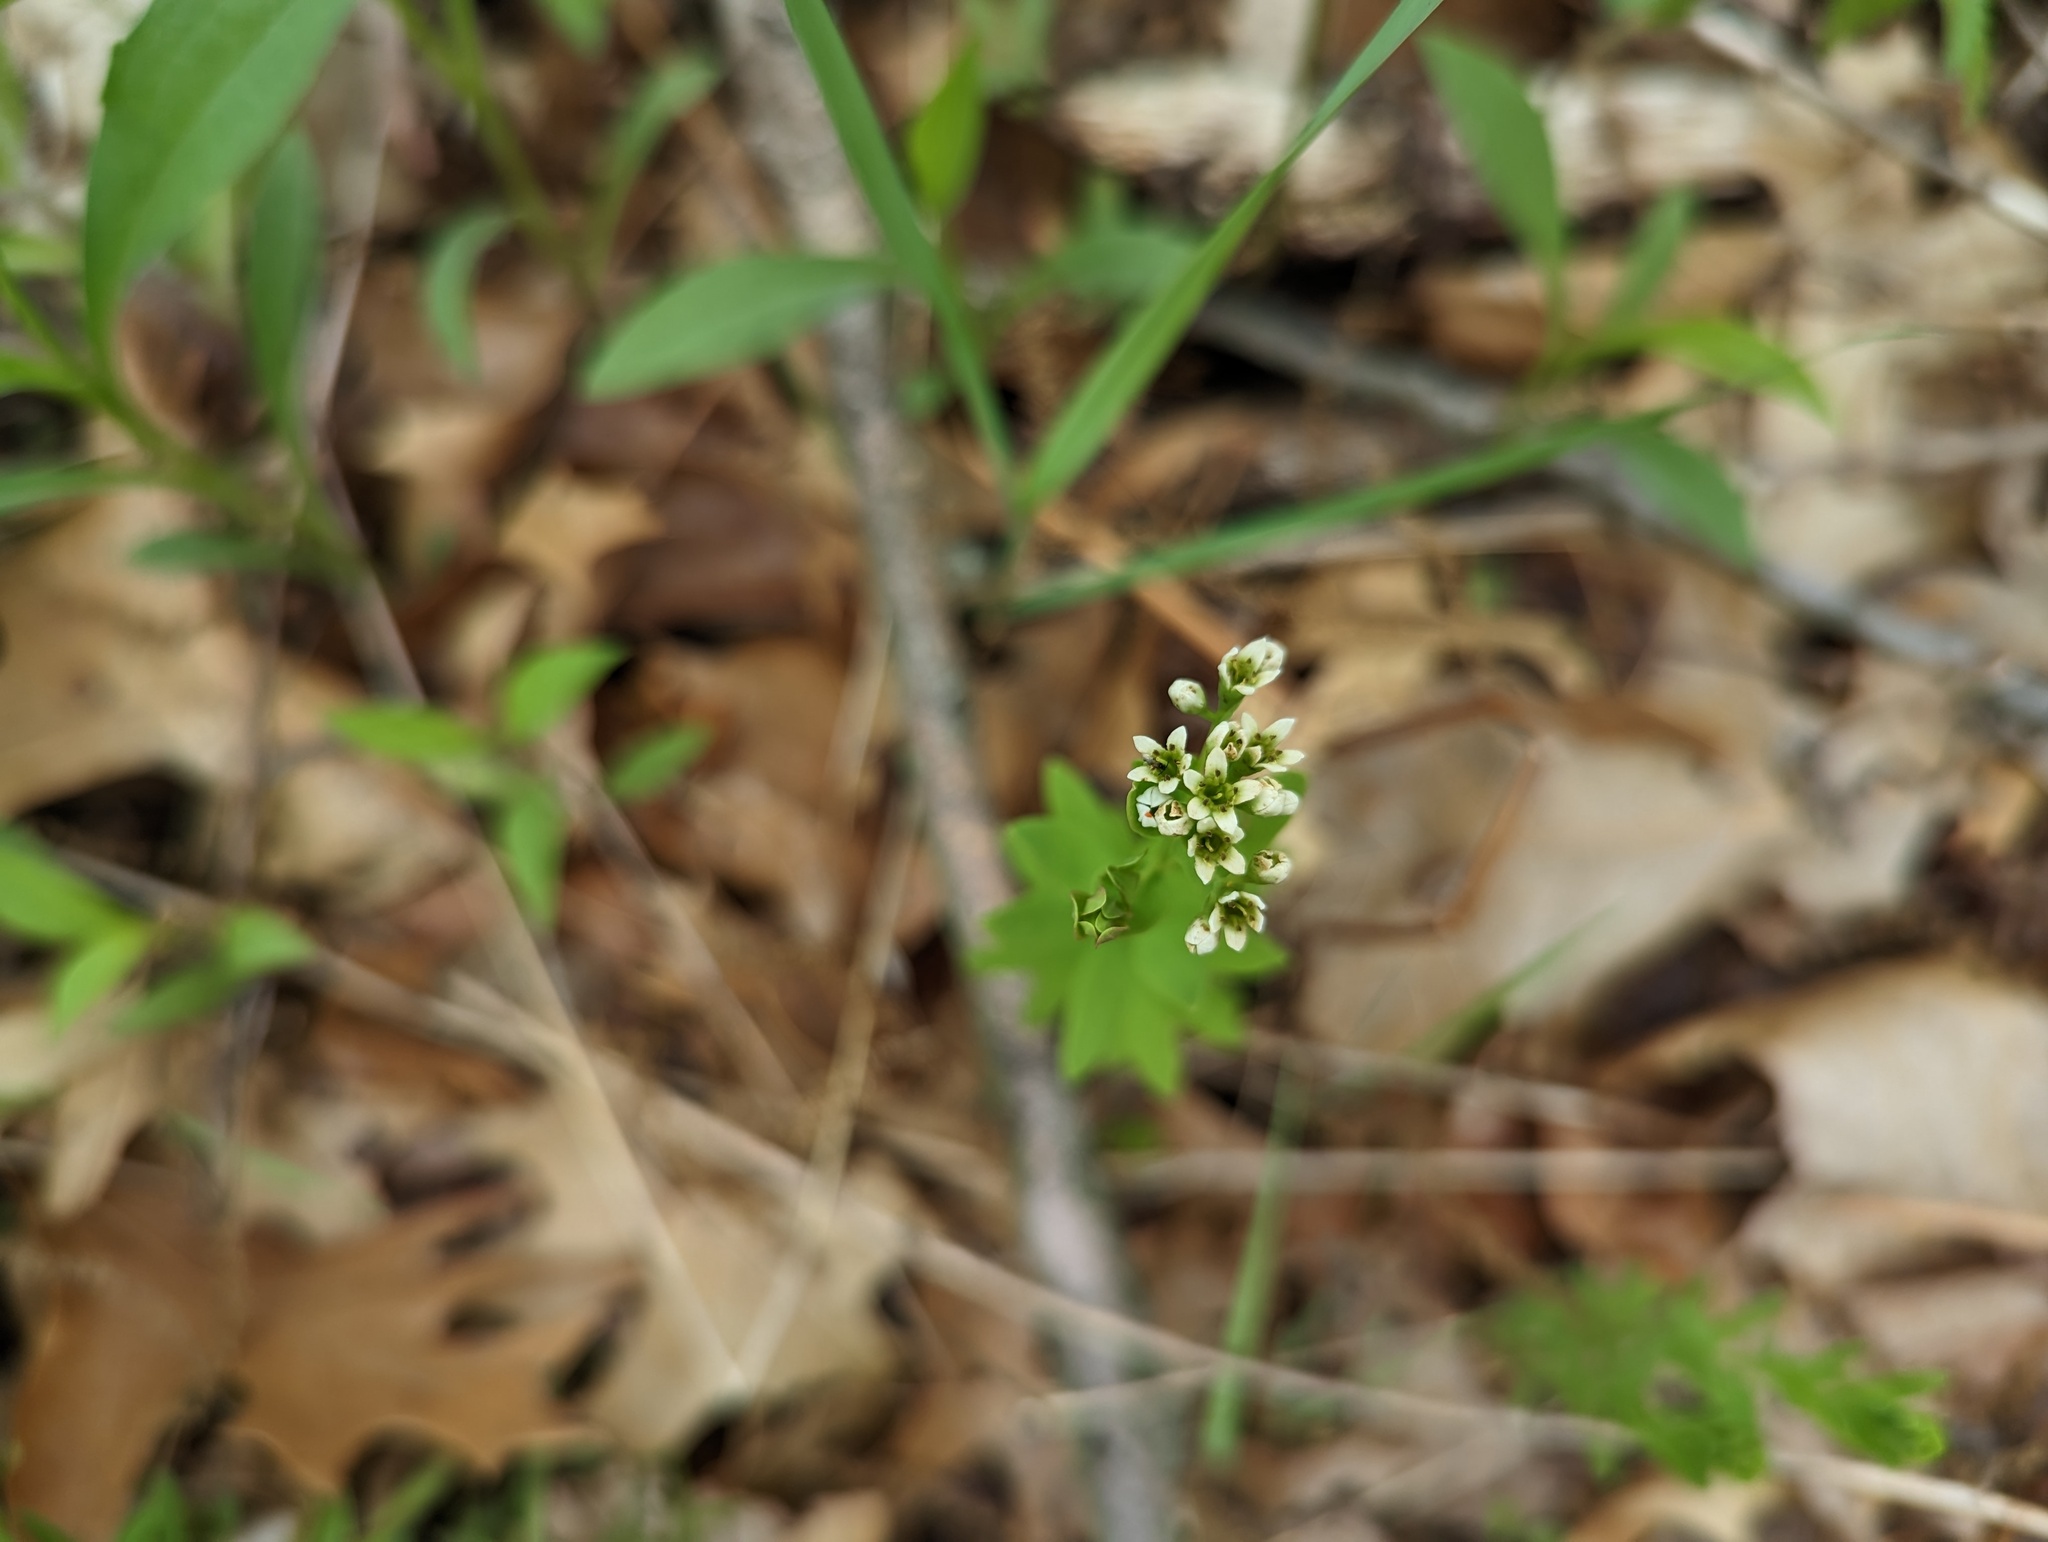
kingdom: Plantae
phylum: Tracheophyta
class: Magnoliopsida
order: Santalales
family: Comandraceae
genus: Comandra
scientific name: Comandra umbellata
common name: Bastard toadflax
